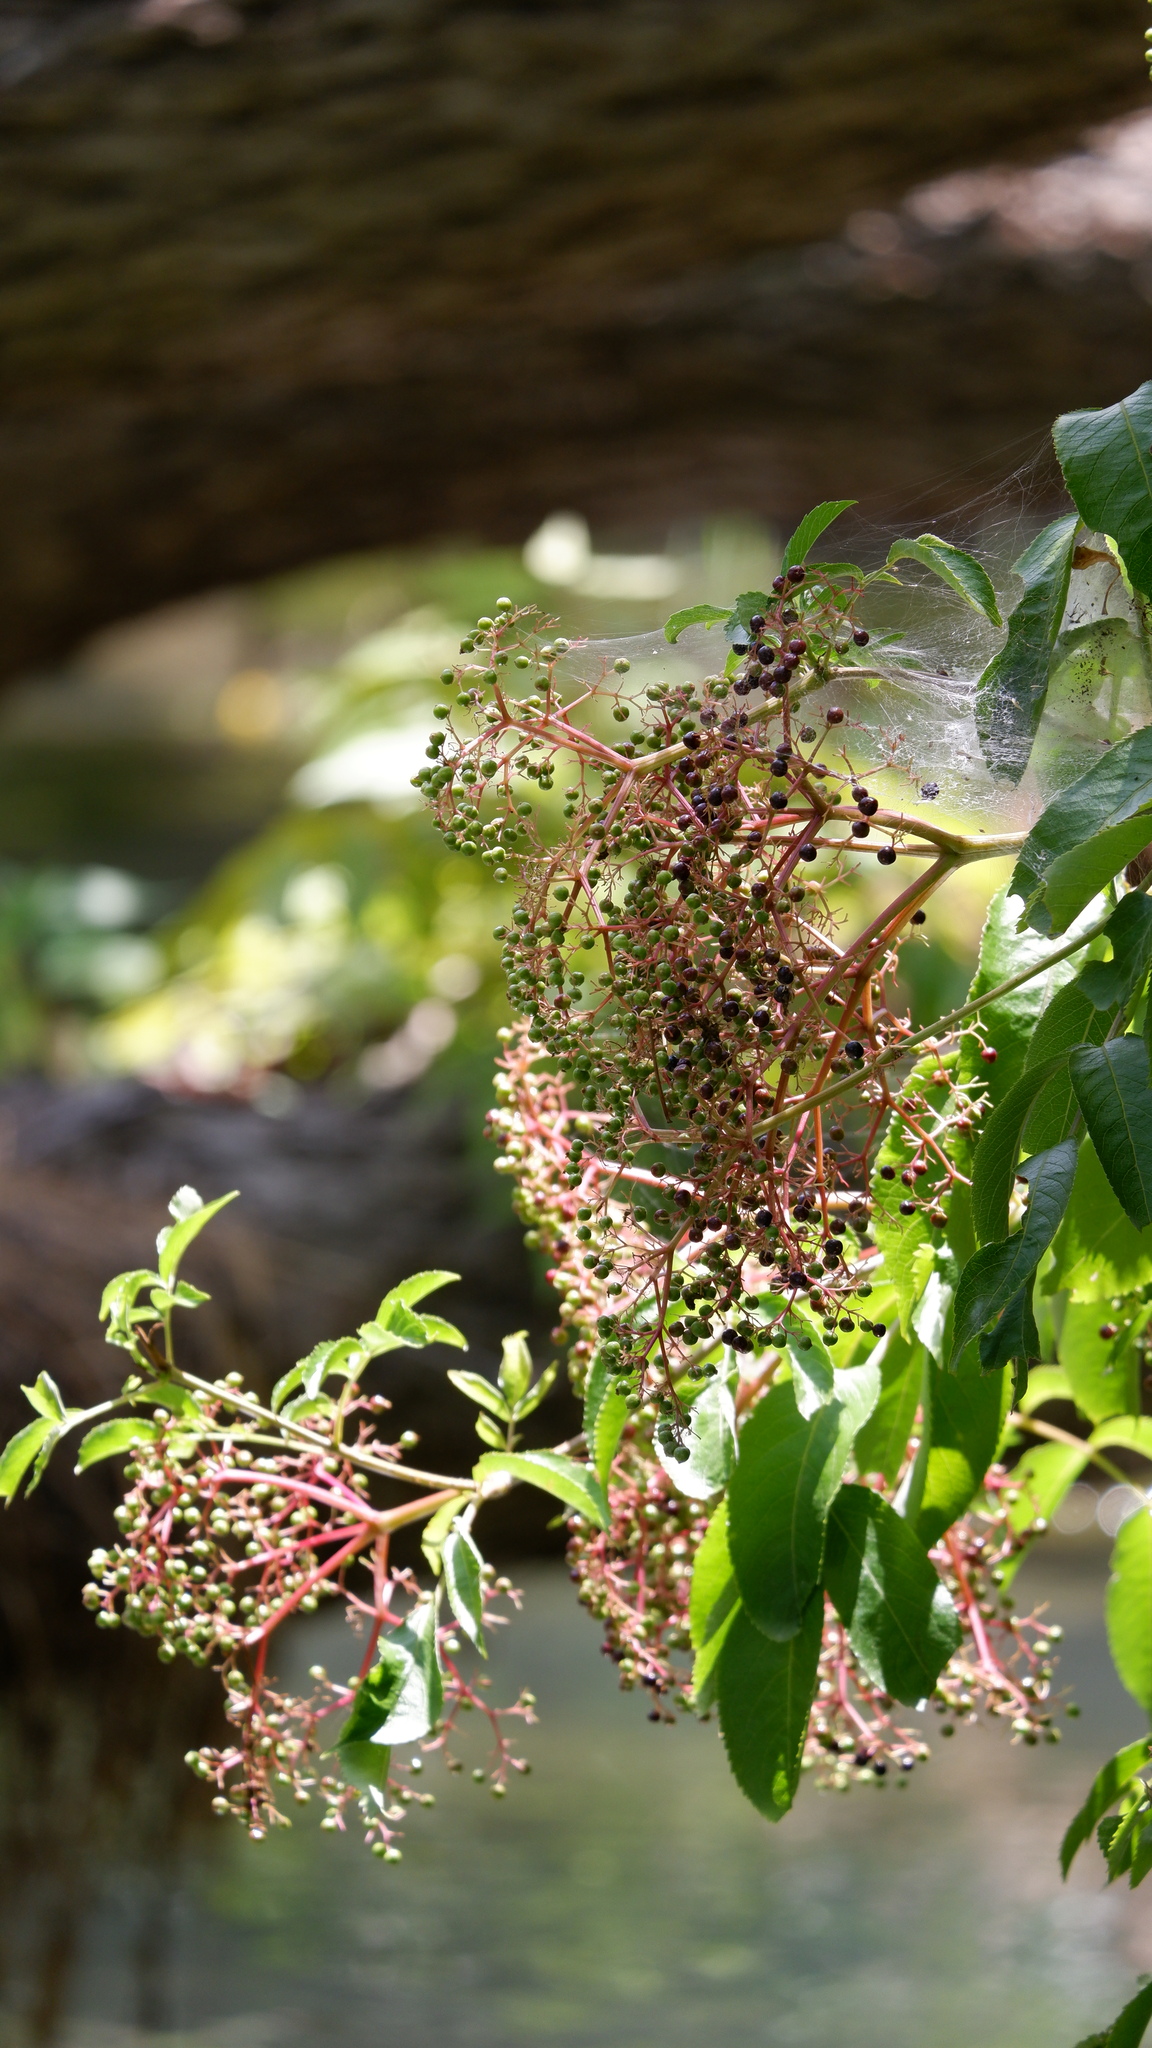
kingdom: Plantae
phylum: Tracheophyta
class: Magnoliopsida
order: Dipsacales
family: Viburnaceae
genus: Sambucus
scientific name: Sambucus canadensis
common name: American elder
